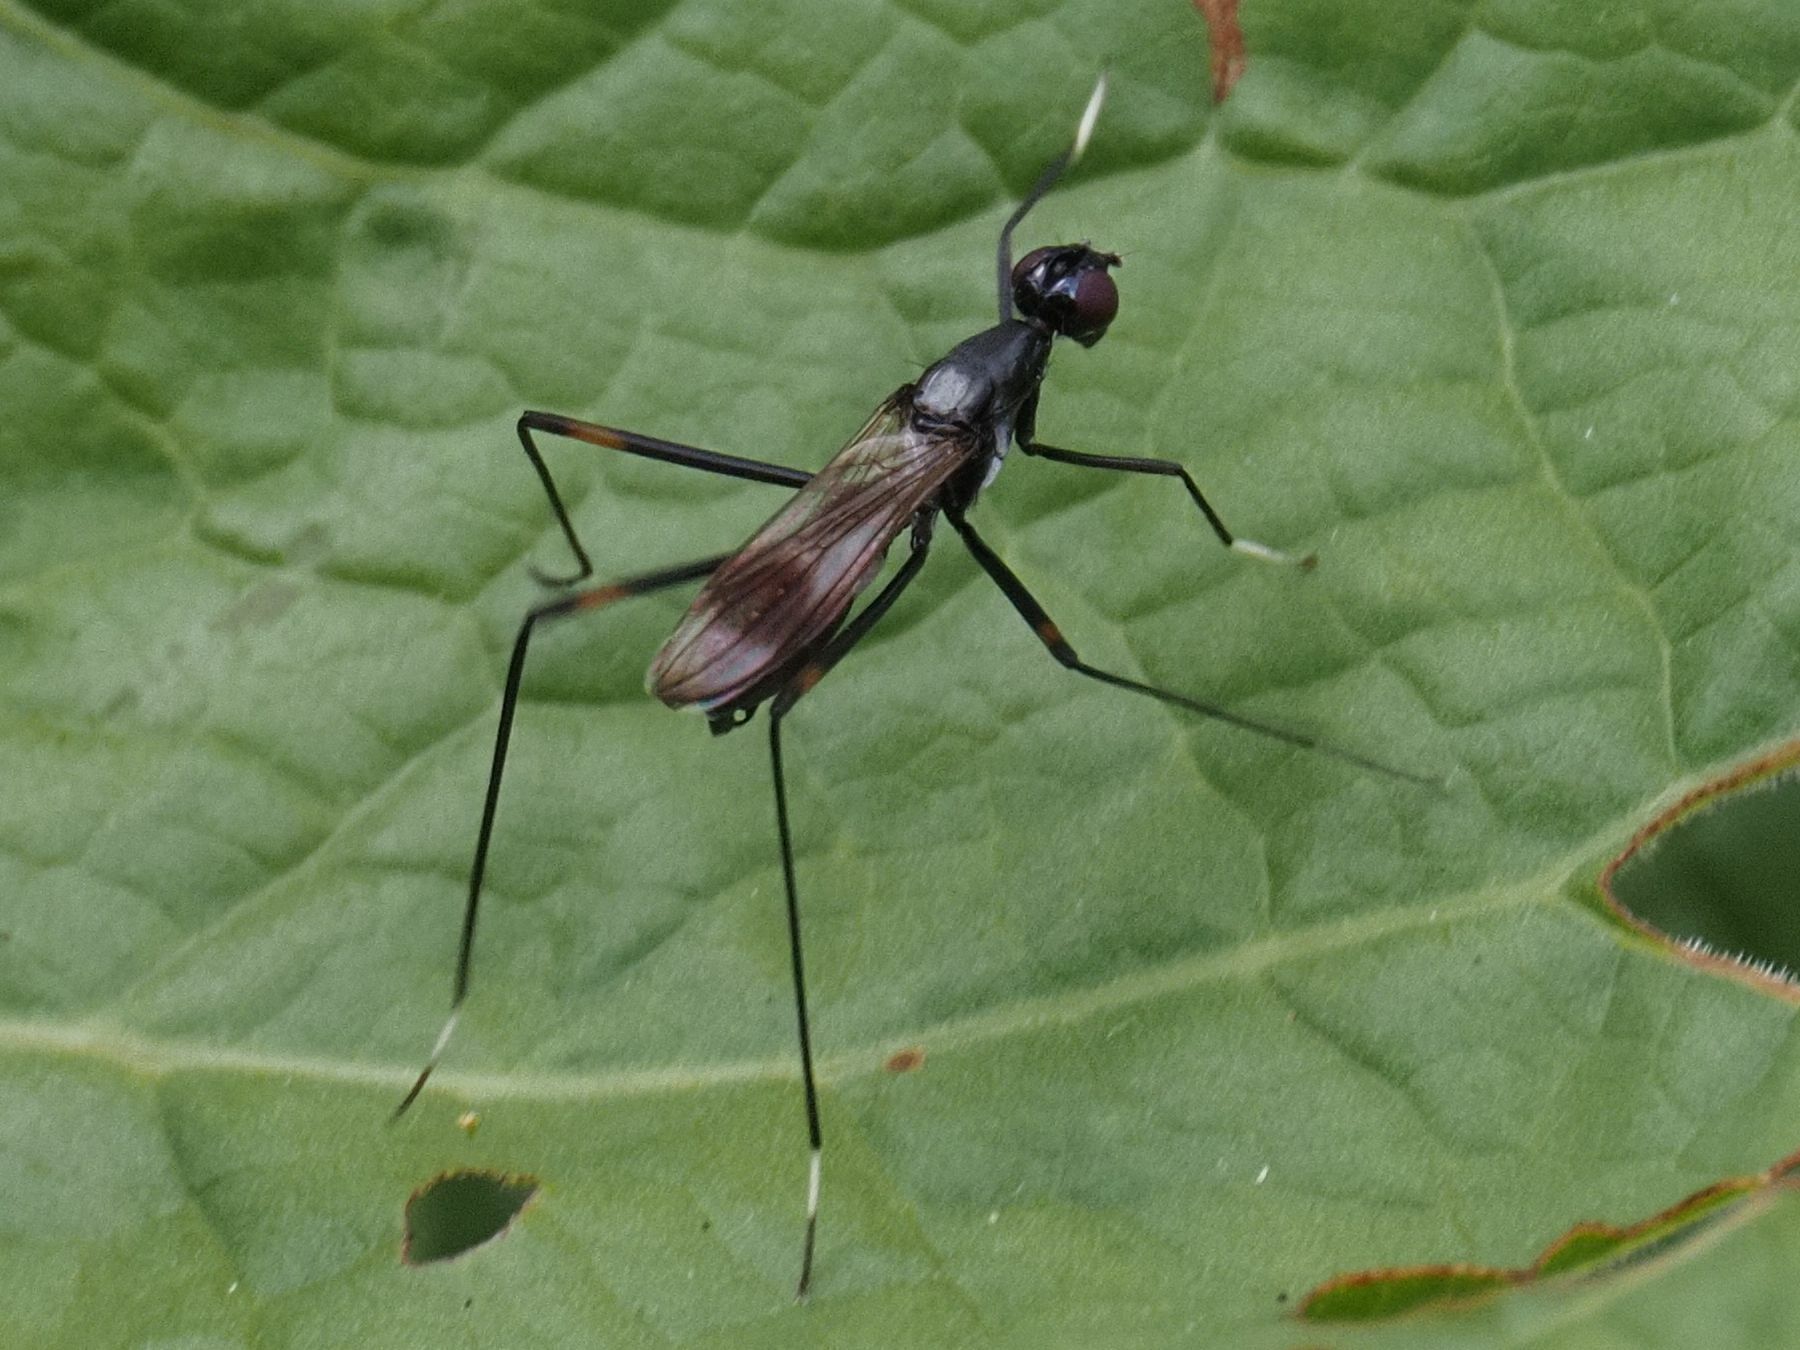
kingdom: Animalia
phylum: Arthropoda
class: Insecta
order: Diptera
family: Micropezidae
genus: Rainieria
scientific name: Rainieria calceata
